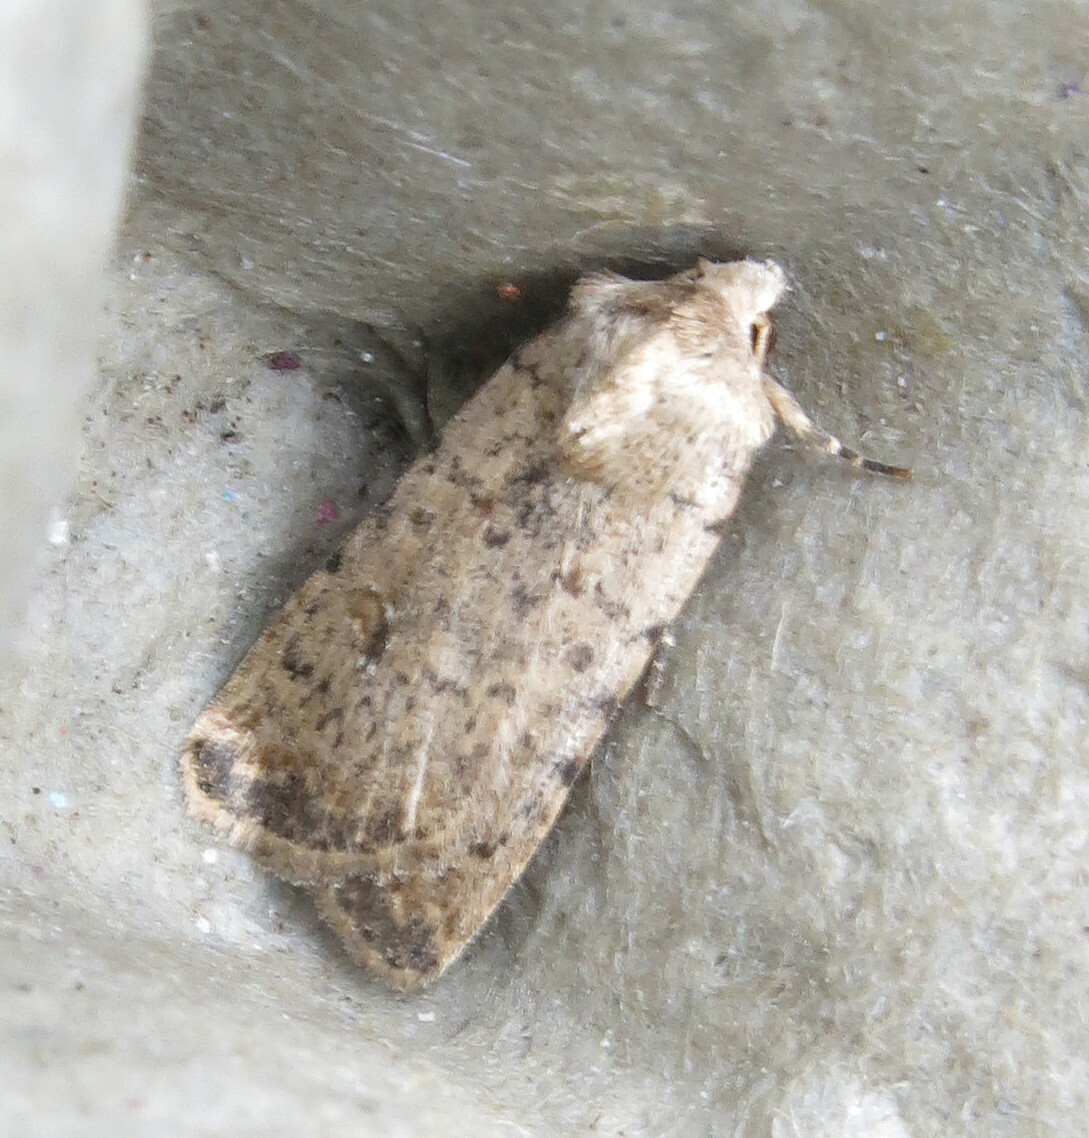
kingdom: Animalia
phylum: Arthropoda
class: Insecta
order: Lepidoptera
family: Noctuidae
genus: Caradrina
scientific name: Caradrina clavipalpis
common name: Pale mottled willow
